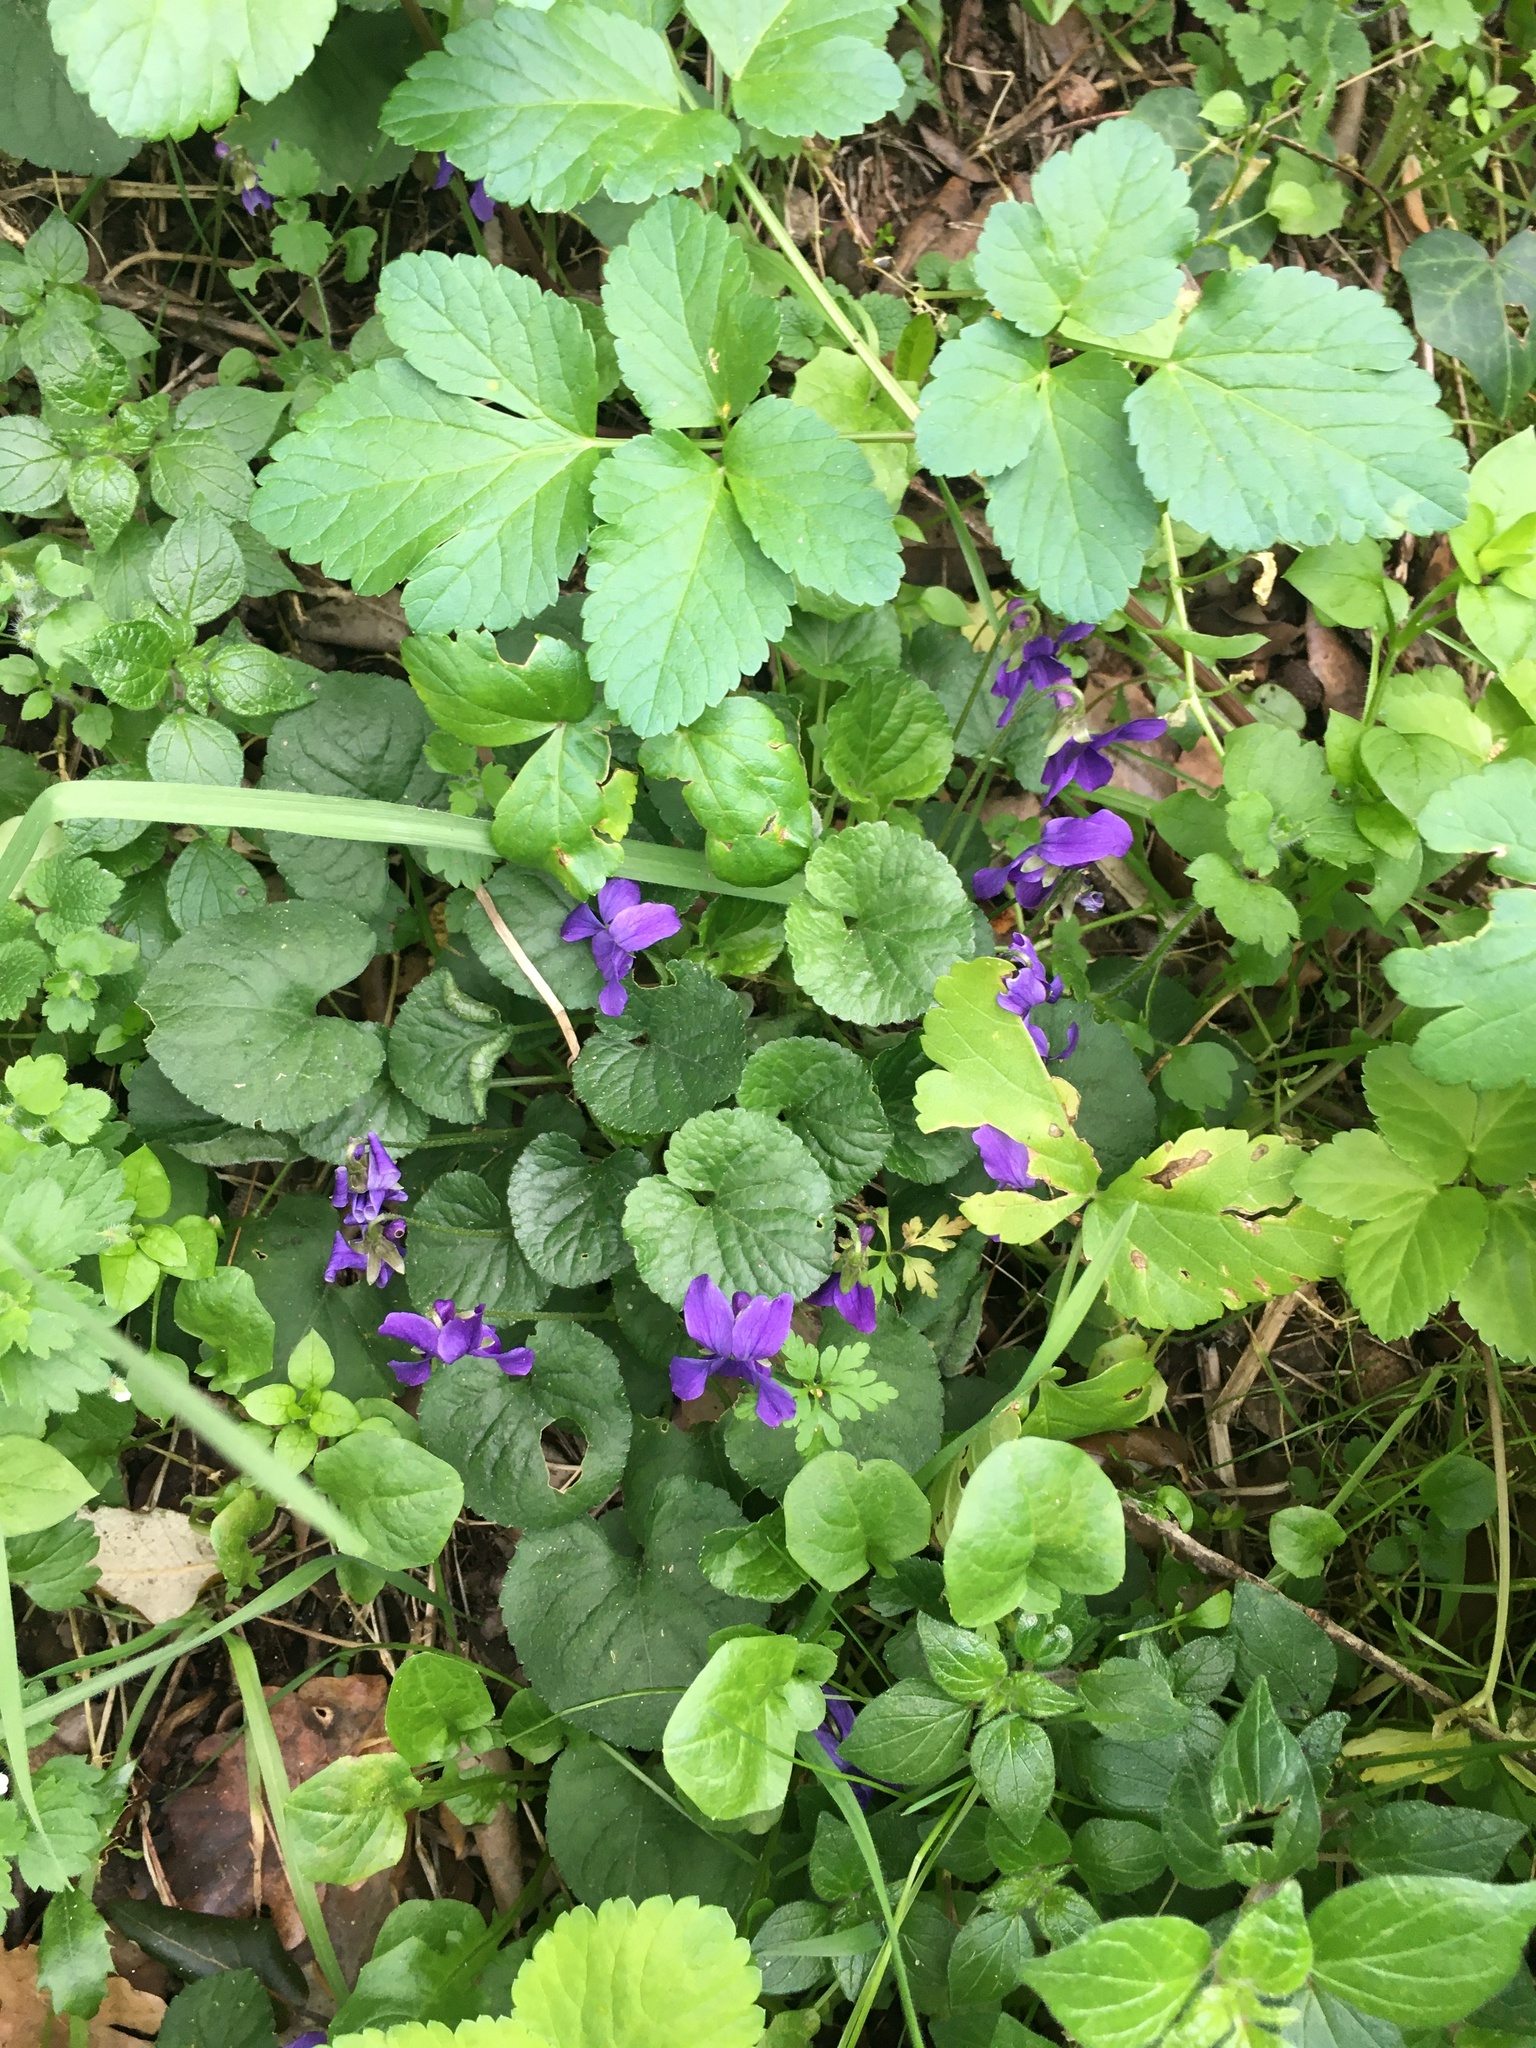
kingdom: Plantae
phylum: Tracheophyta
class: Magnoliopsida
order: Malpighiales
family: Violaceae
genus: Viola
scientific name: Viola odorata
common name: Sweet violet
